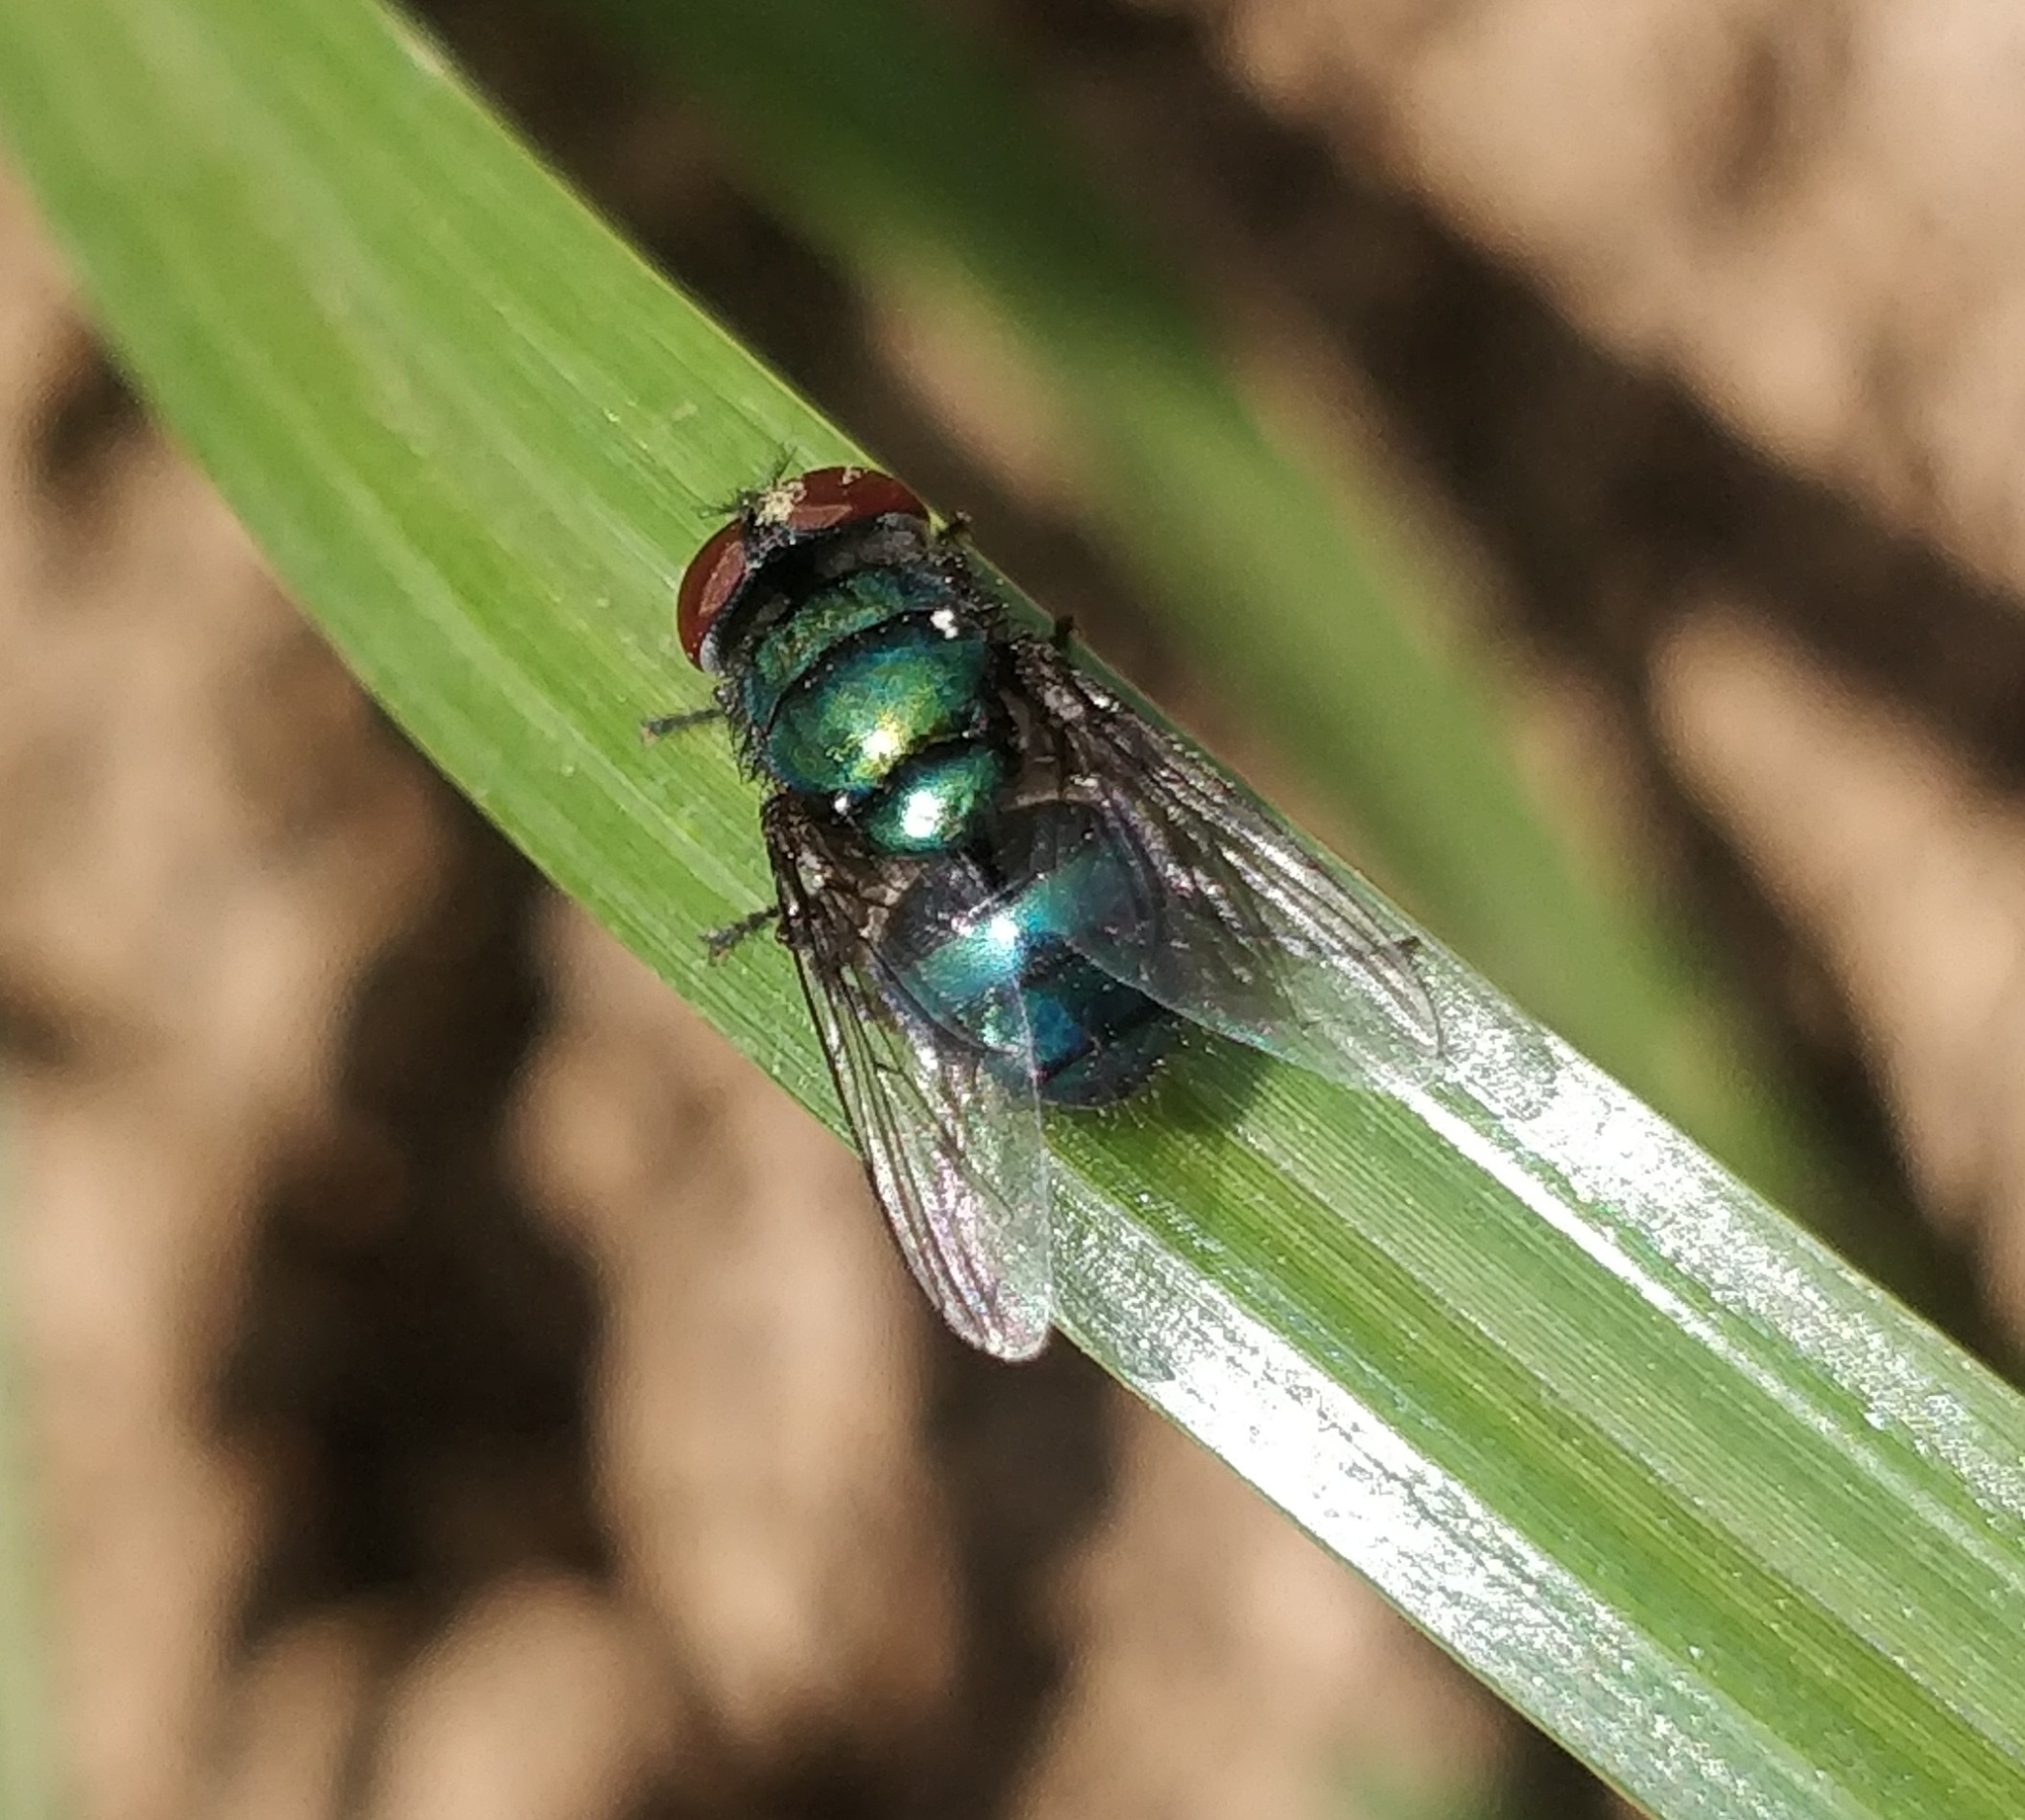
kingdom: Animalia
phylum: Arthropoda
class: Insecta
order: Diptera
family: Calliphoridae
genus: Chrysomya
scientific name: Chrysomya albiceps
